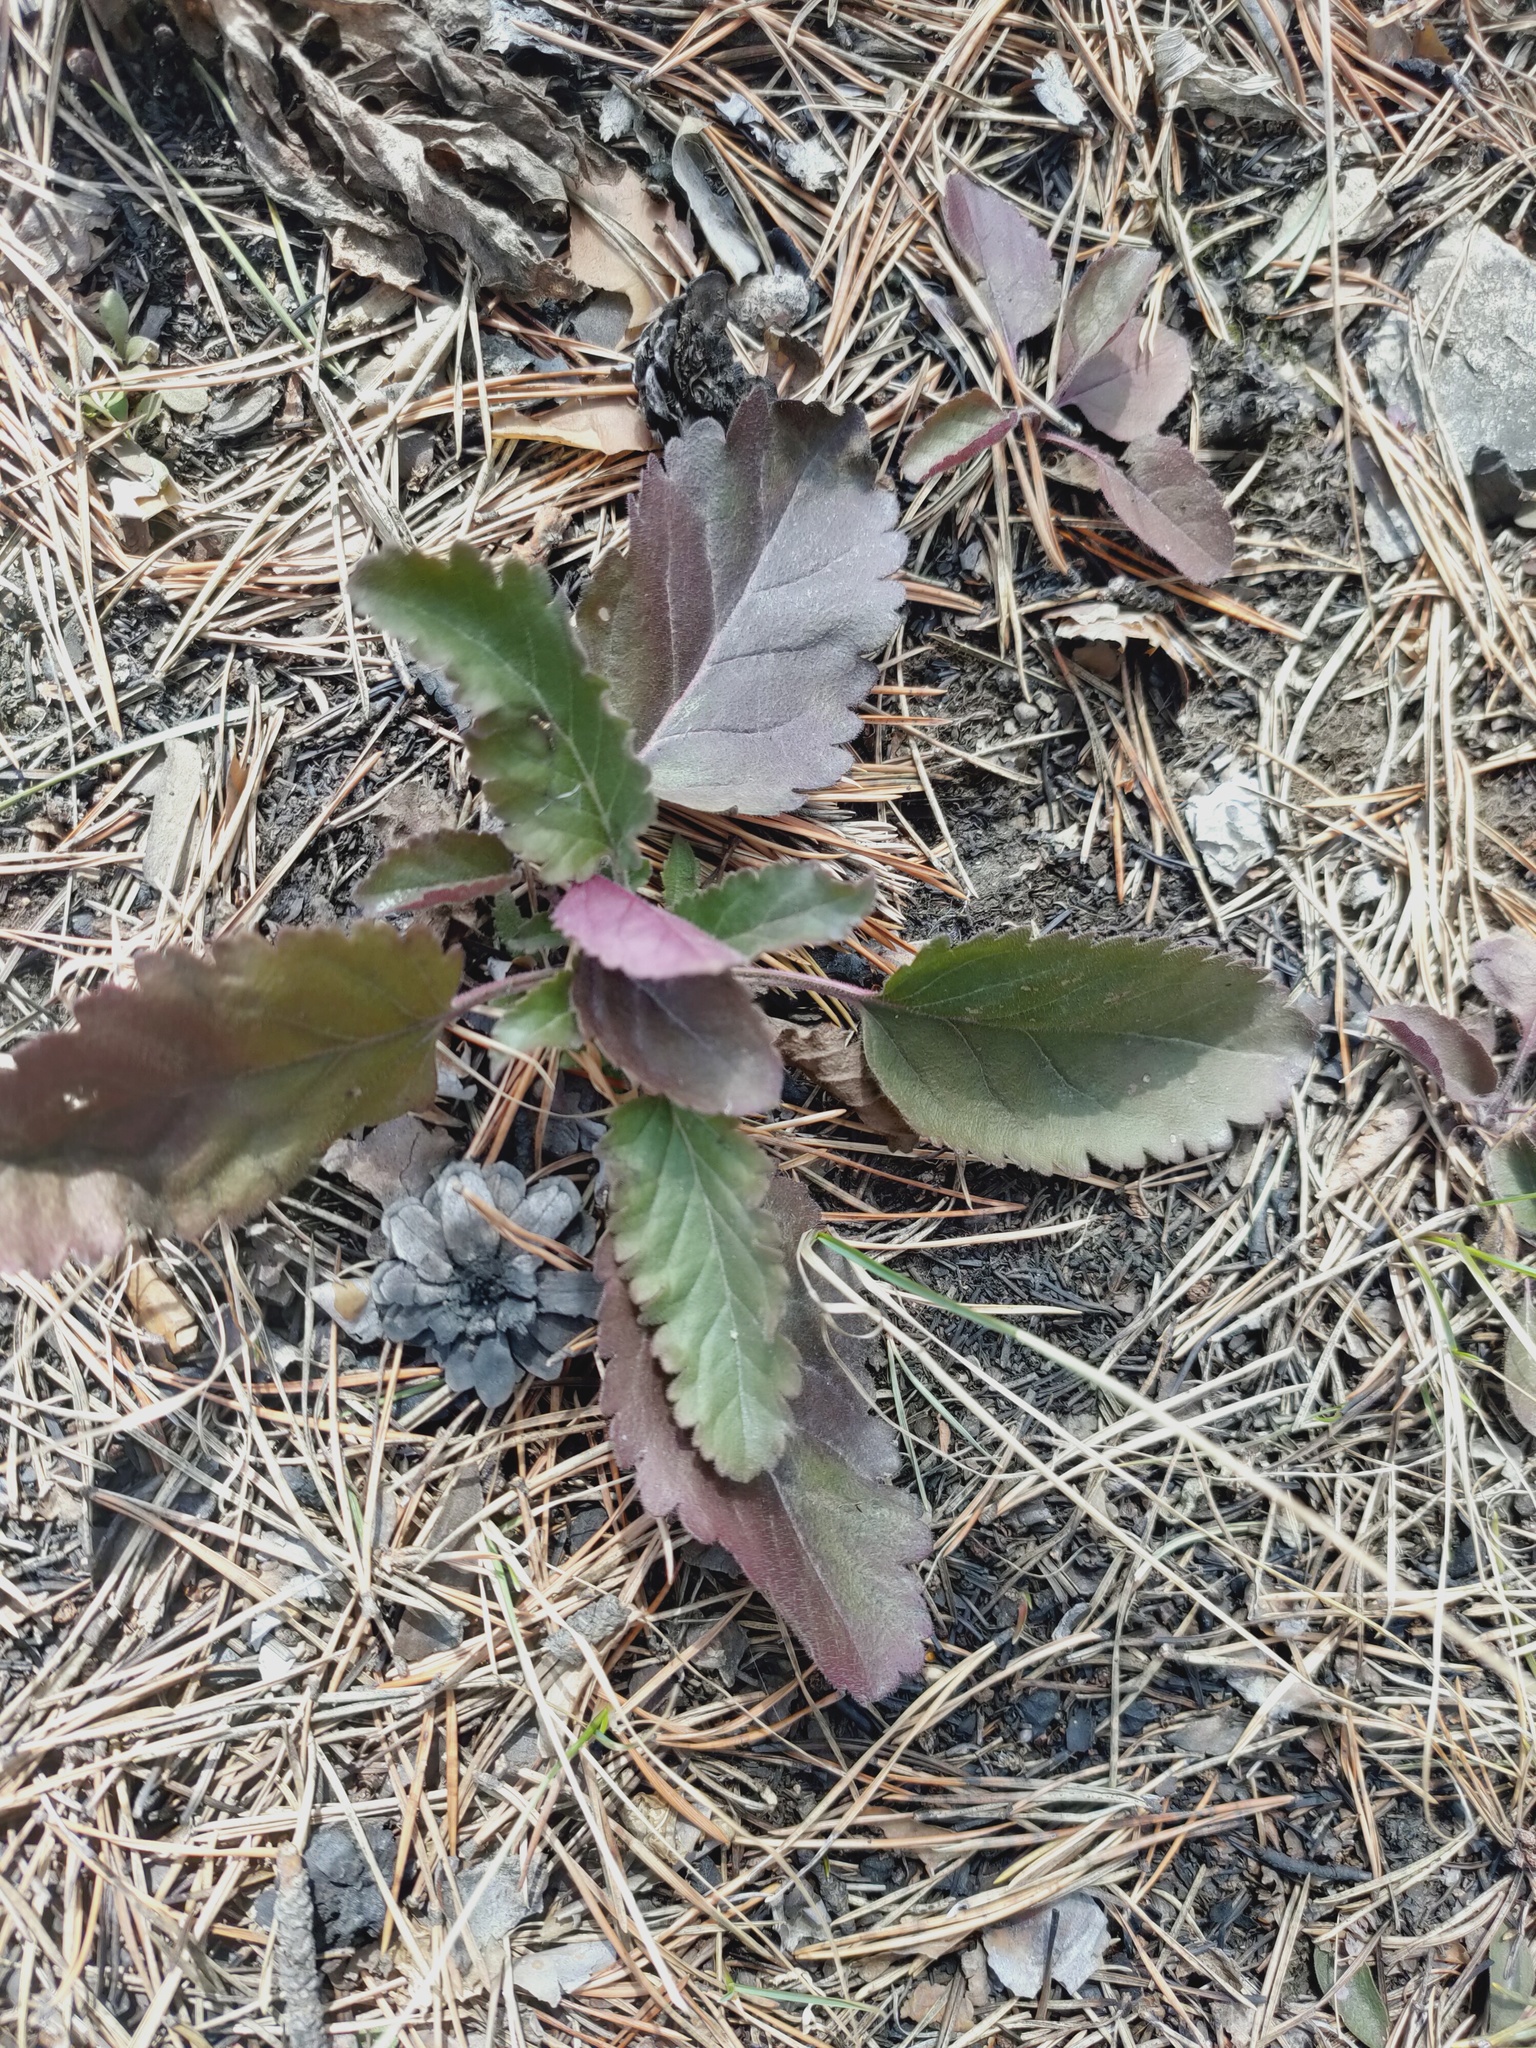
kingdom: Plantae
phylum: Tracheophyta
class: Magnoliopsida
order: Lamiales
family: Plantaginaceae
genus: Veronica
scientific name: Veronica spicata
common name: Spiked speedwell
